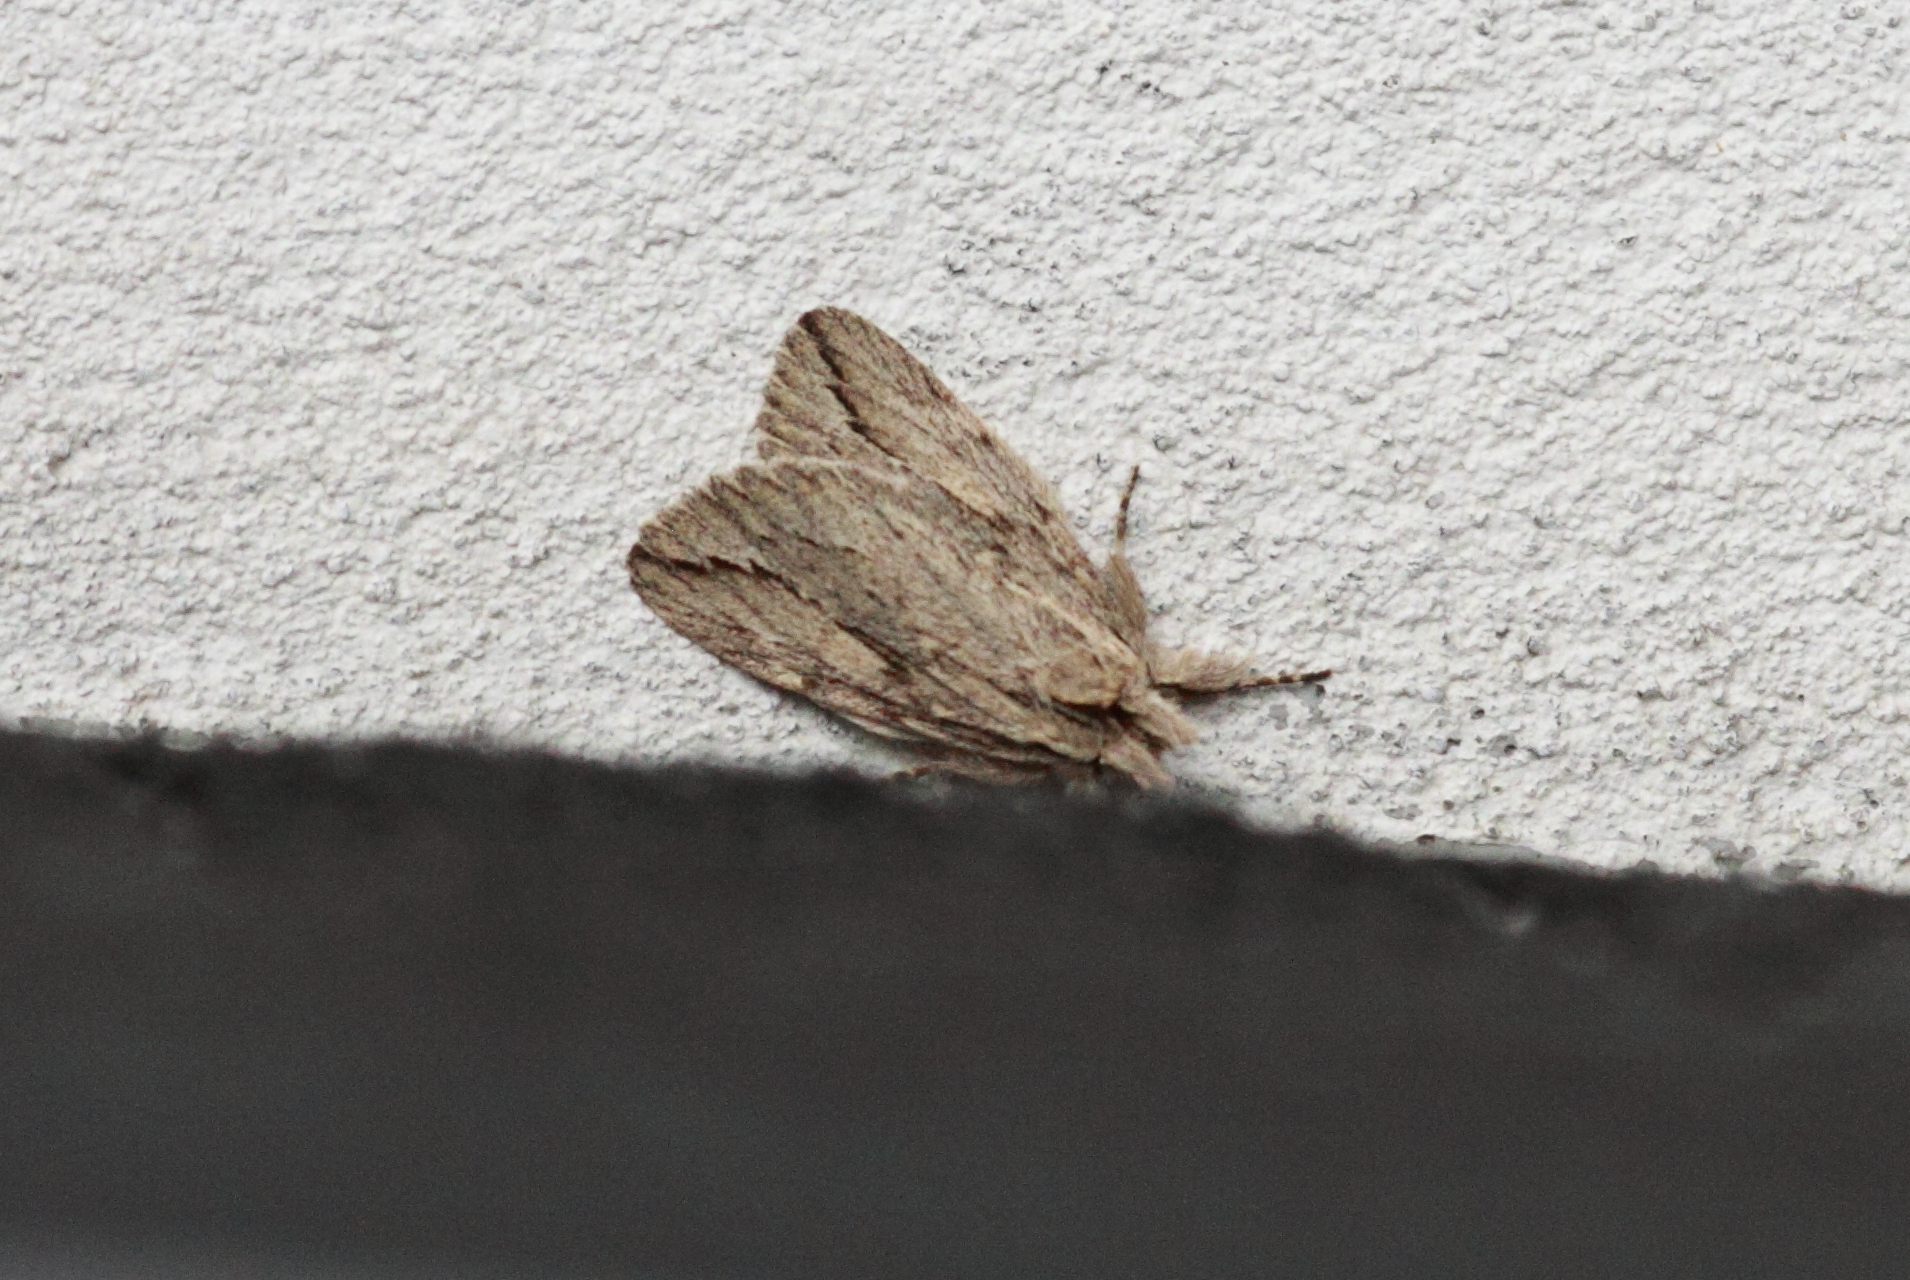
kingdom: Animalia
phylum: Arthropoda
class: Insecta
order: Lepidoptera
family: Notodontidae
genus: Ecnomodes
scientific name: Ecnomodes sagittaria
